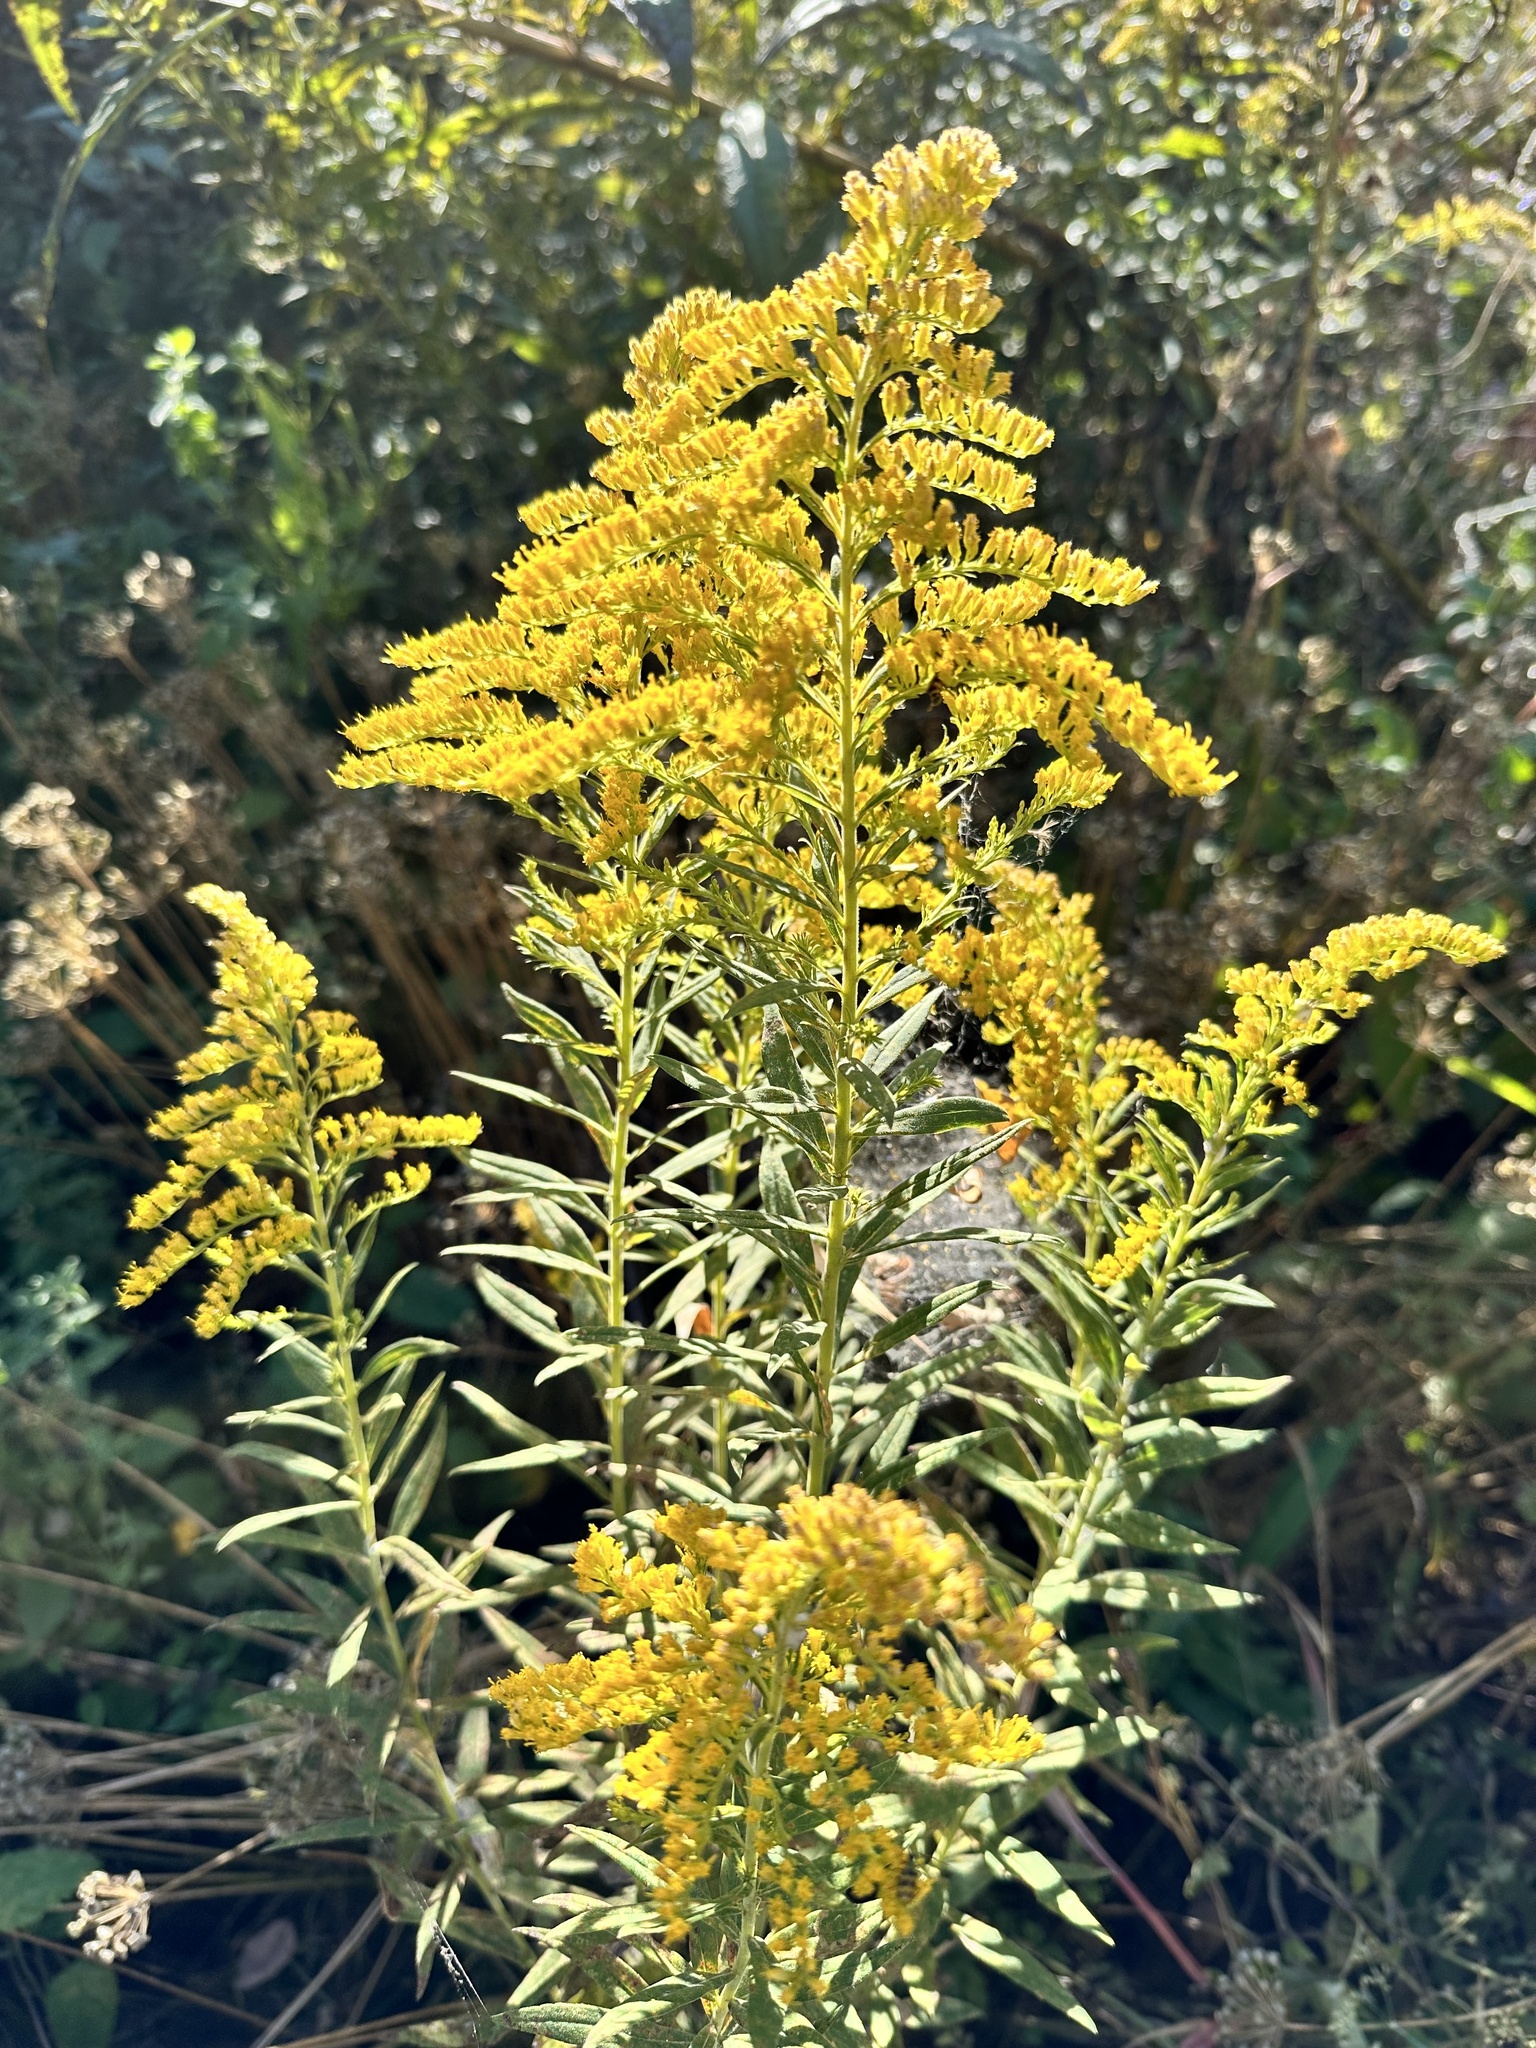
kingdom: Plantae
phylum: Tracheophyta
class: Magnoliopsida
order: Asterales
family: Asteraceae
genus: Solidago
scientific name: Solidago altissima
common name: Late goldenrod
